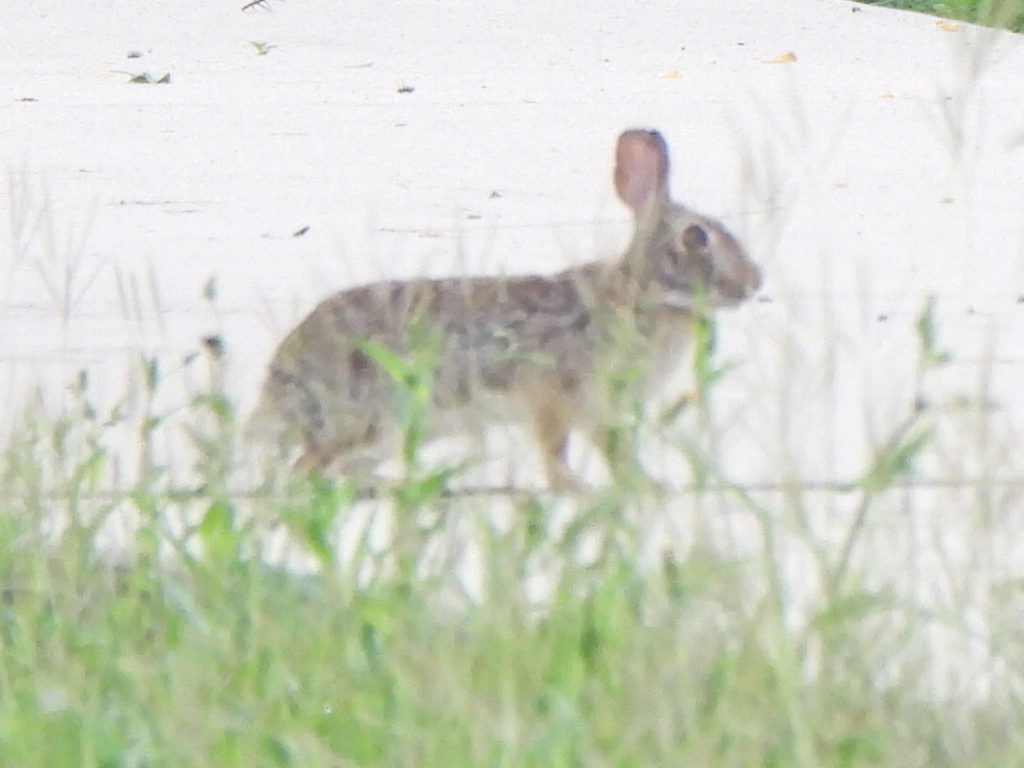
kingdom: Animalia
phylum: Chordata
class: Mammalia
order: Lagomorpha
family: Leporidae
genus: Sylvilagus
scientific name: Sylvilagus floridanus
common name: Eastern cottontail
